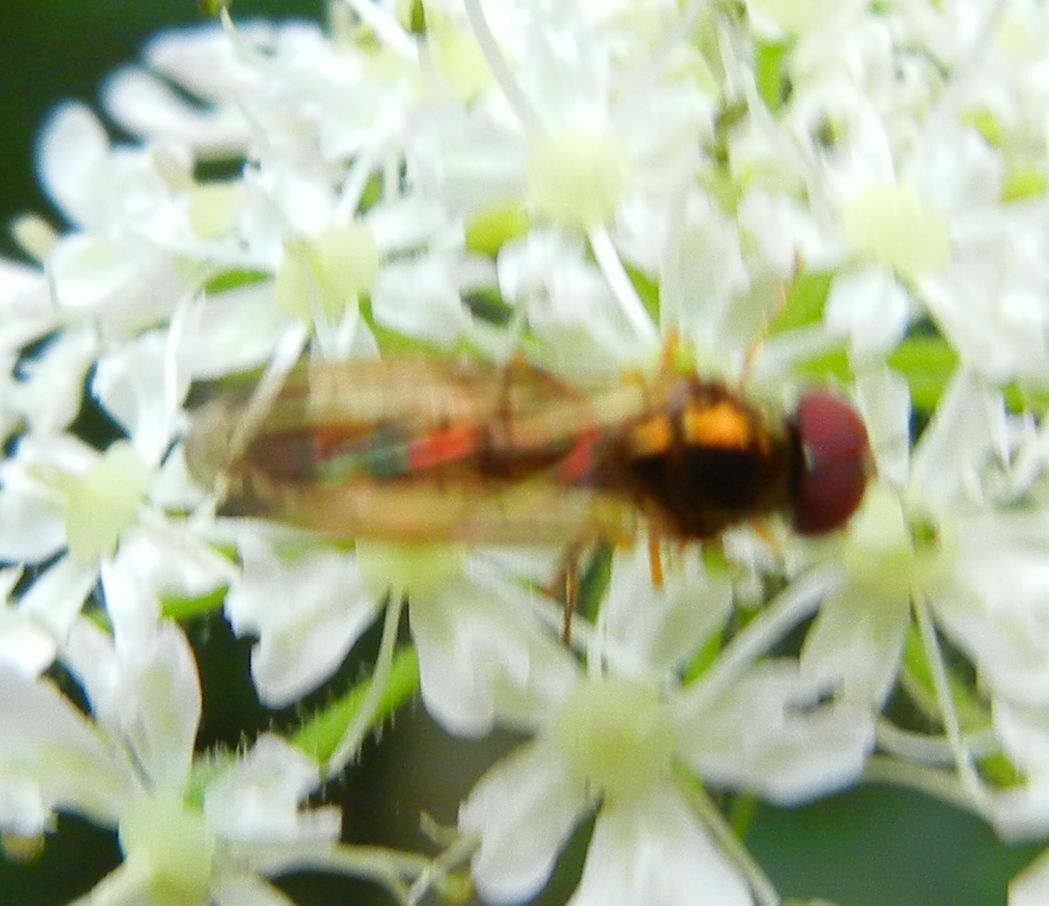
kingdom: Animalia
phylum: Arthropoda
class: Insecta
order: Diptera
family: Syrphidae
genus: Melanostoma
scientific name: Melanostoma scalare
